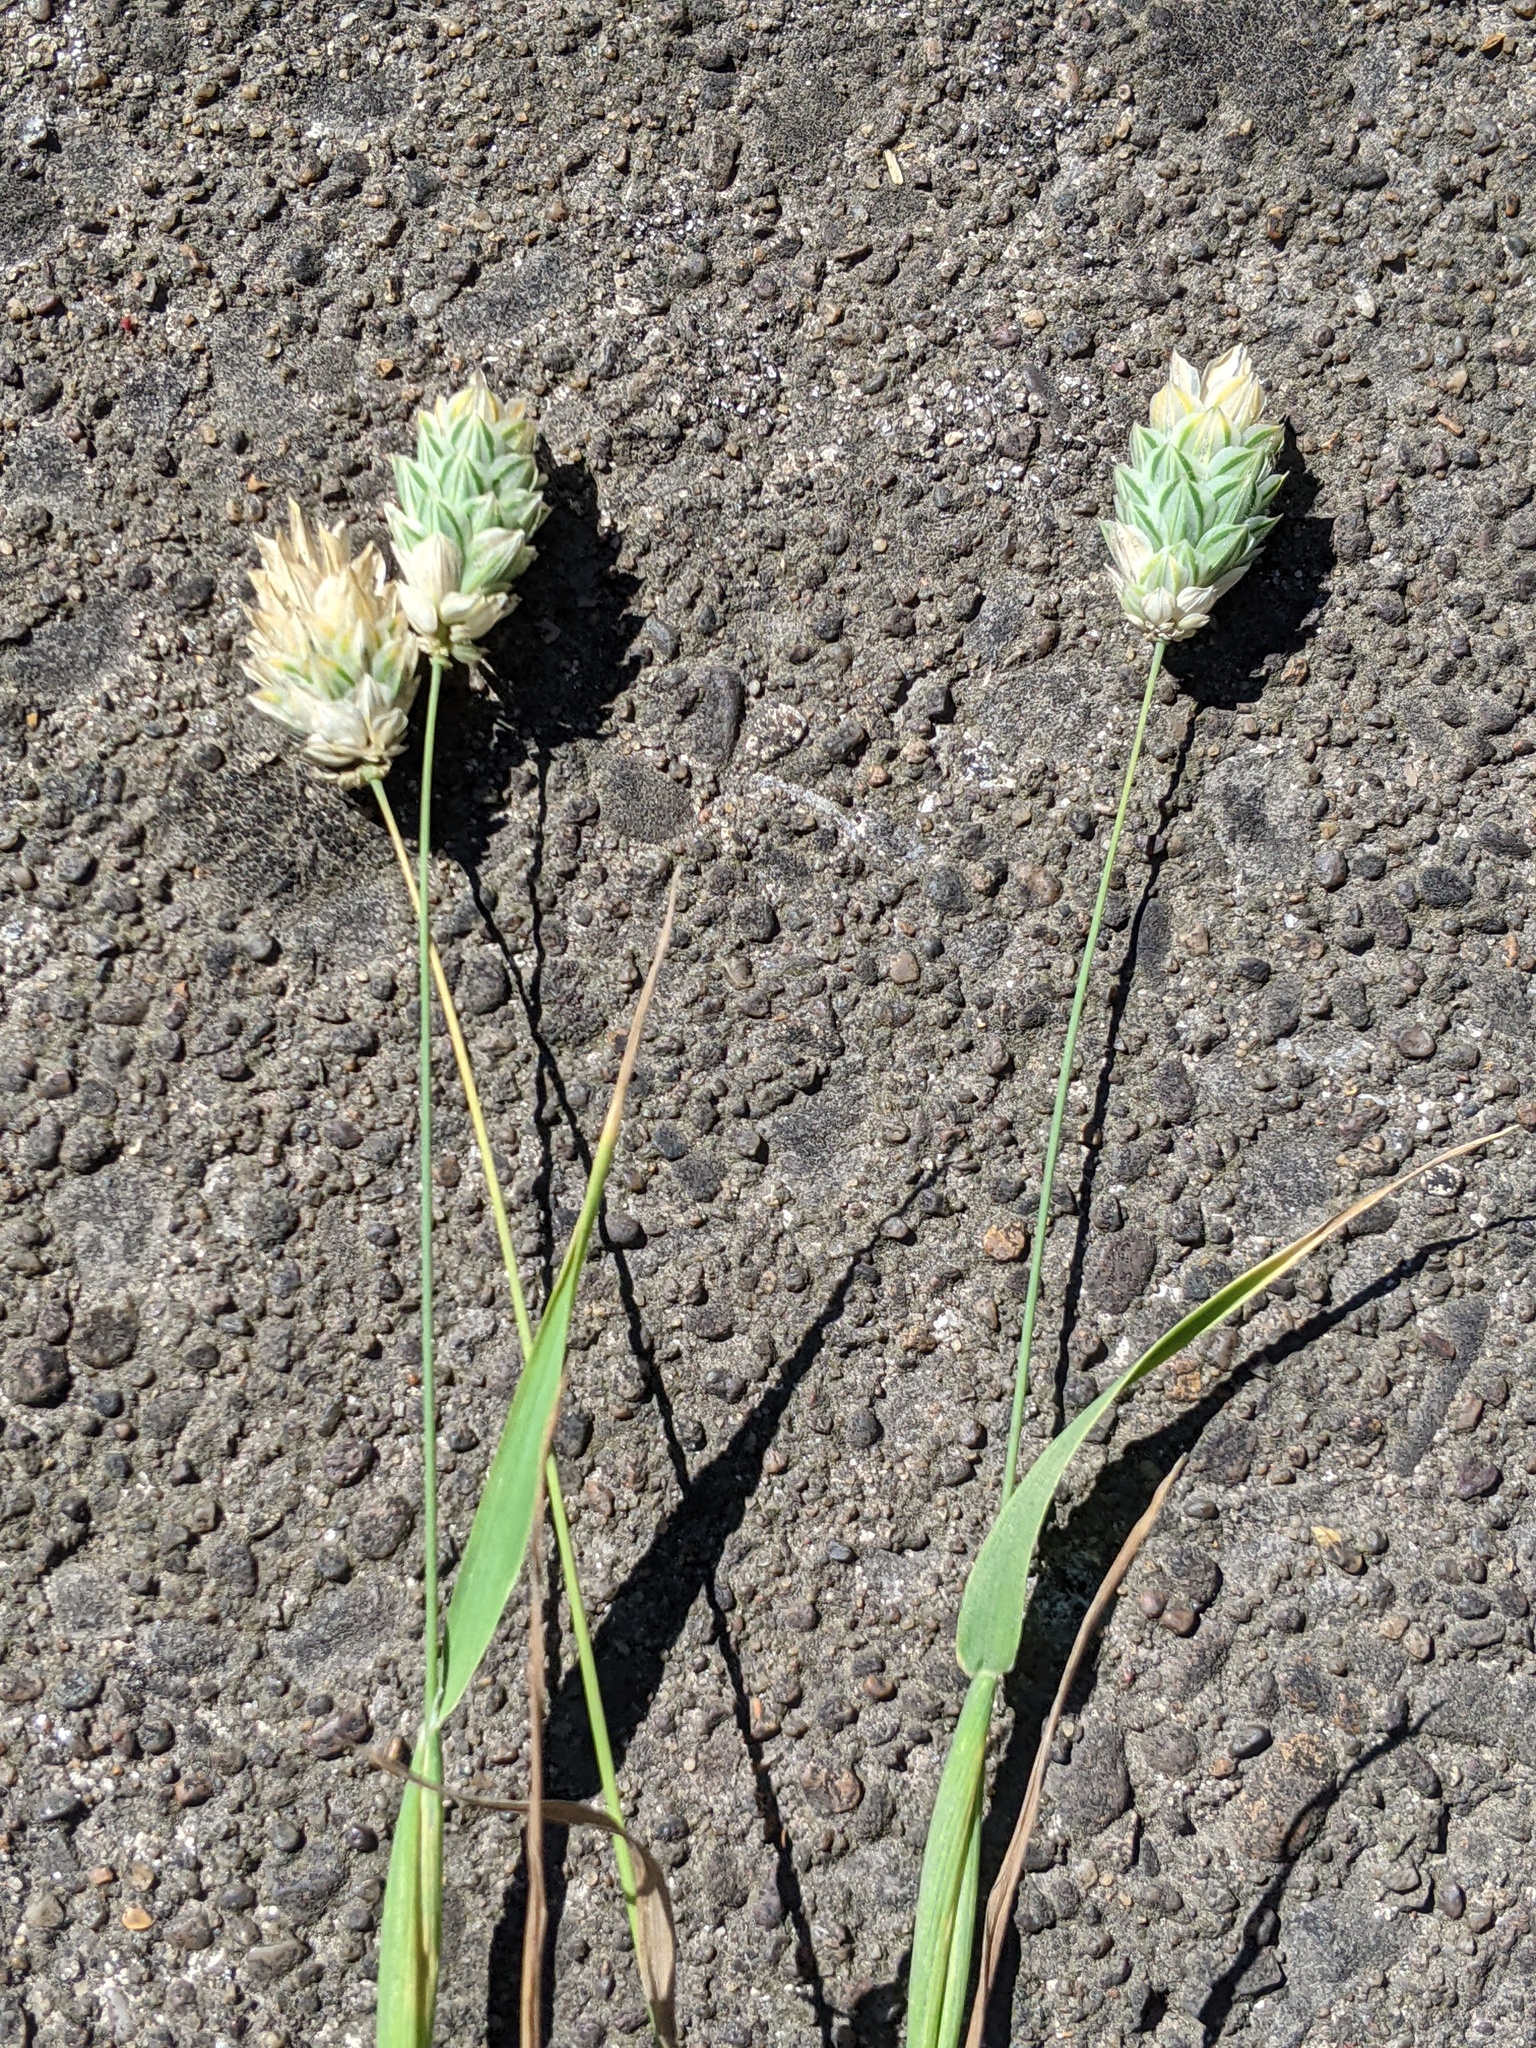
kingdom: Plantae
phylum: Tracheophyta
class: Liliopsida
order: Poales
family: Poaceae
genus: Phalaris
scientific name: Phalaris canariensis
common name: Annual canarygrass
